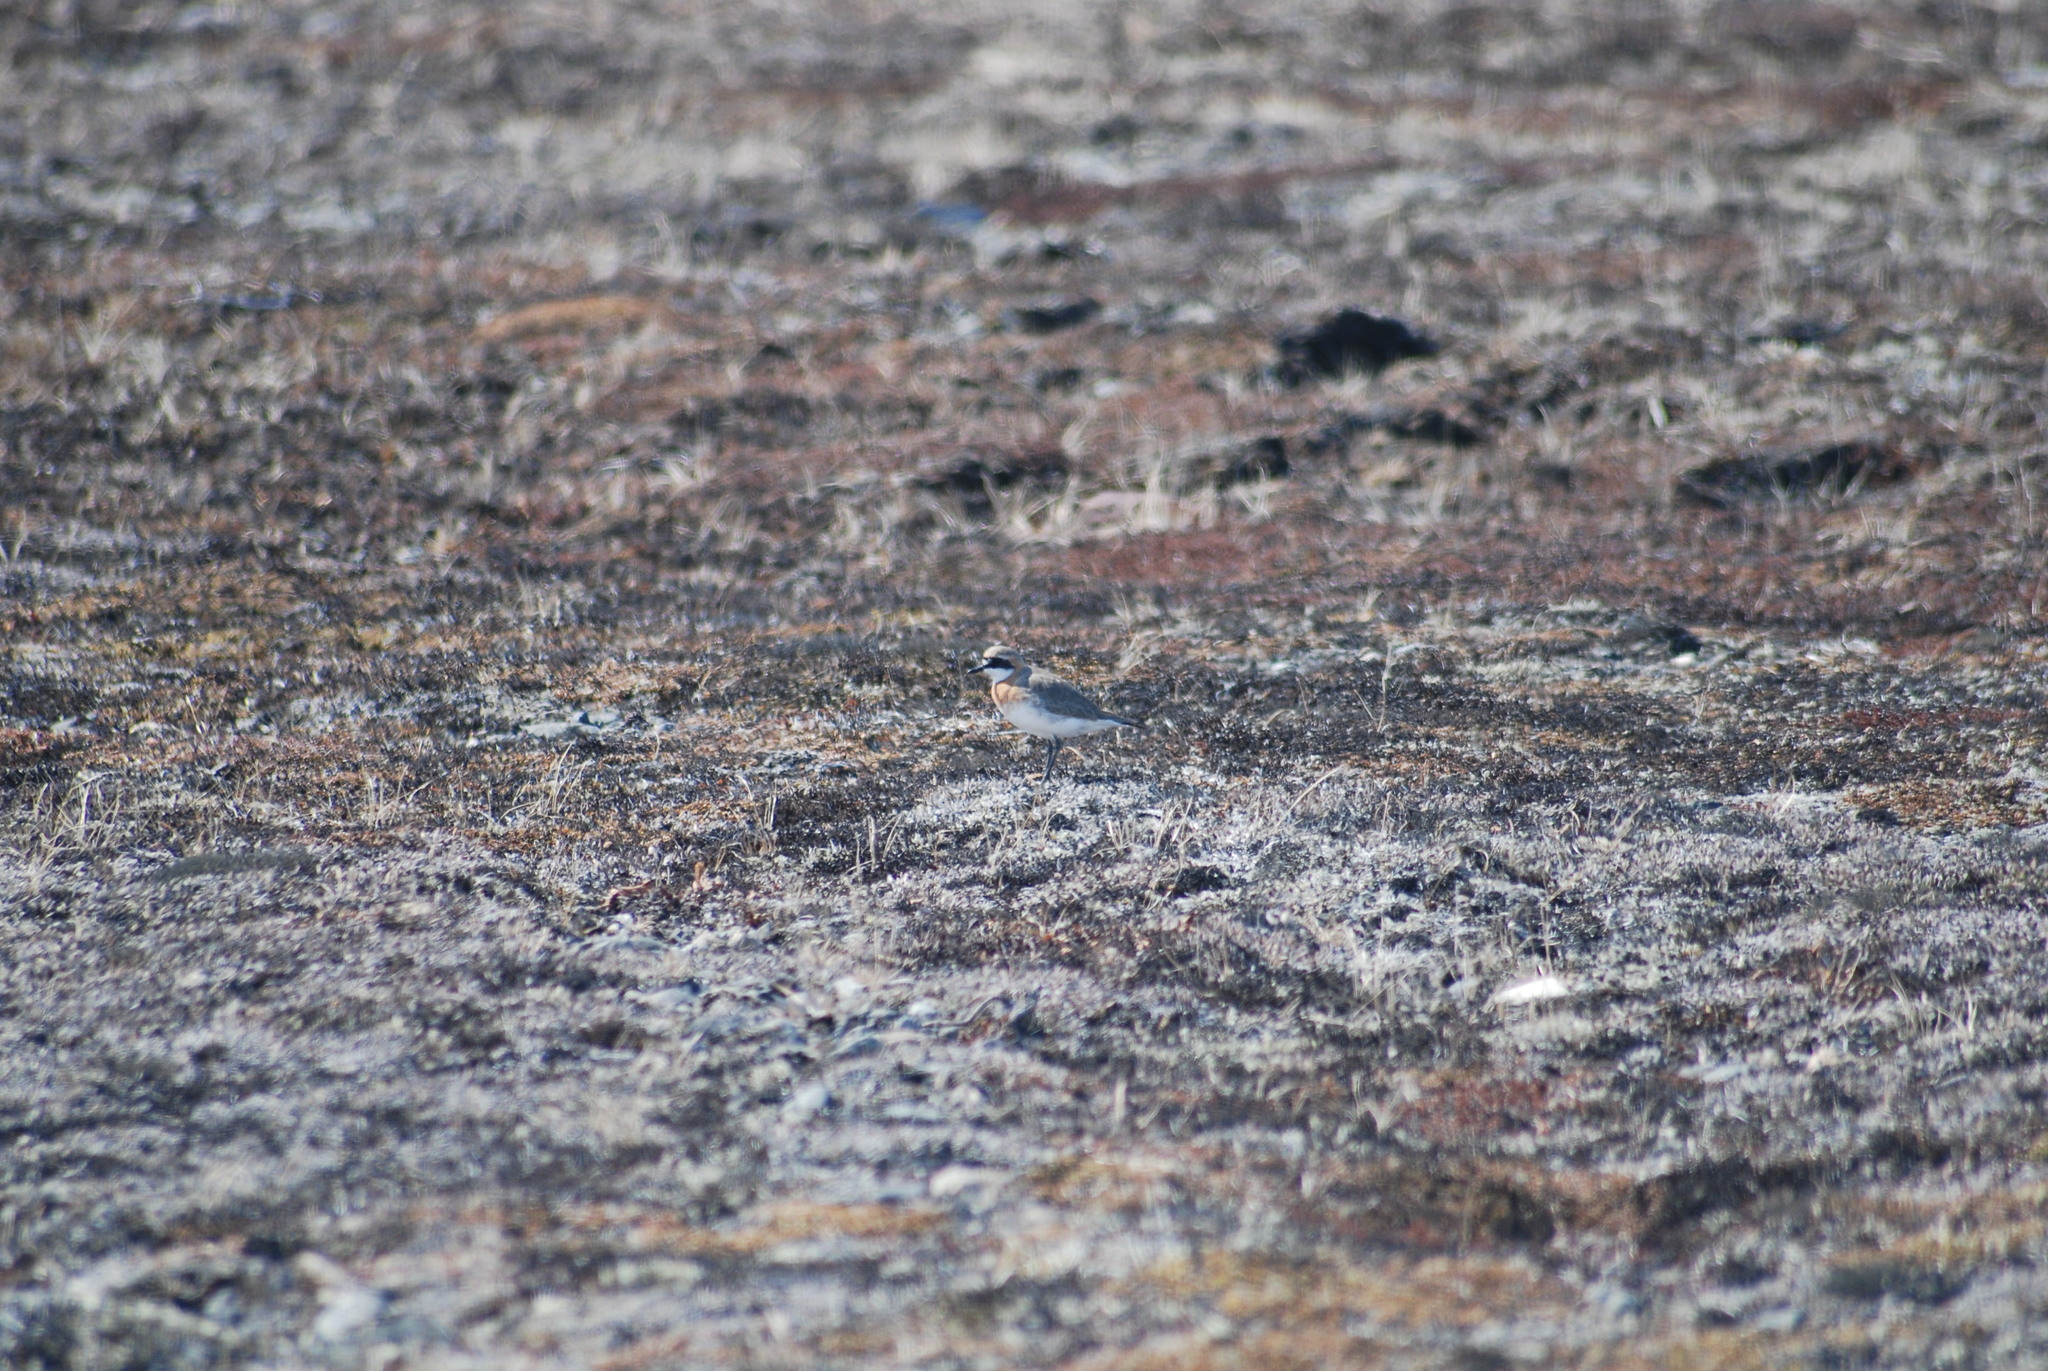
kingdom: Animalia
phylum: Chordata
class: Aves
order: Charadriiformes
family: Charadriidae
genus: Anarhynchus
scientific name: Anarhynchus
